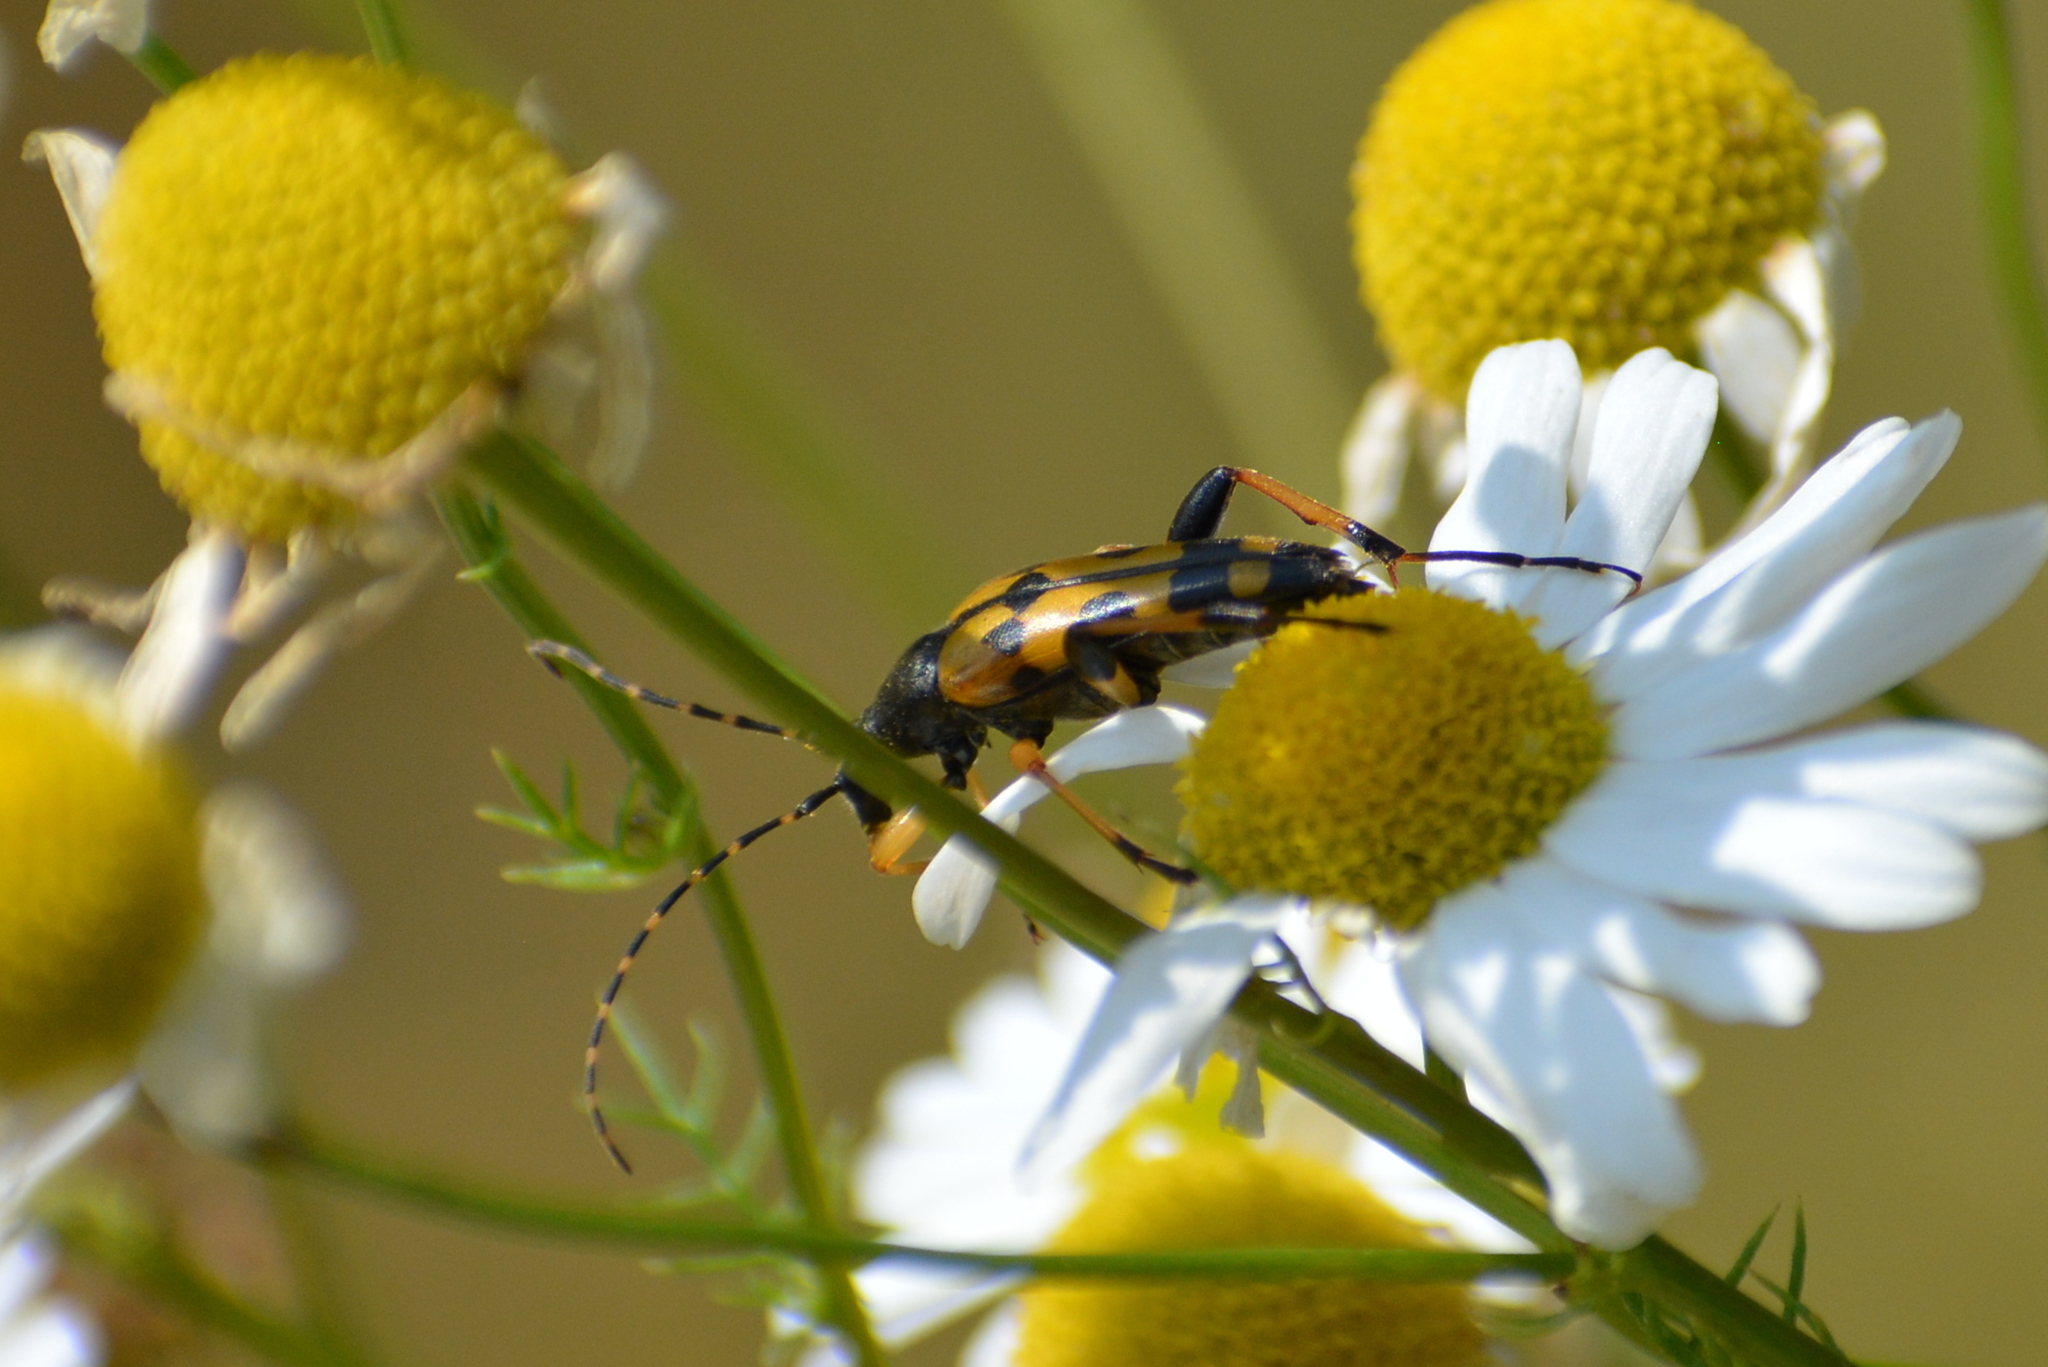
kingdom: Animalia
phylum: Arthropoda
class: Insecta
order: Coleoptera
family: Cerambycidae
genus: Rutpela
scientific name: Rutpela maculata
